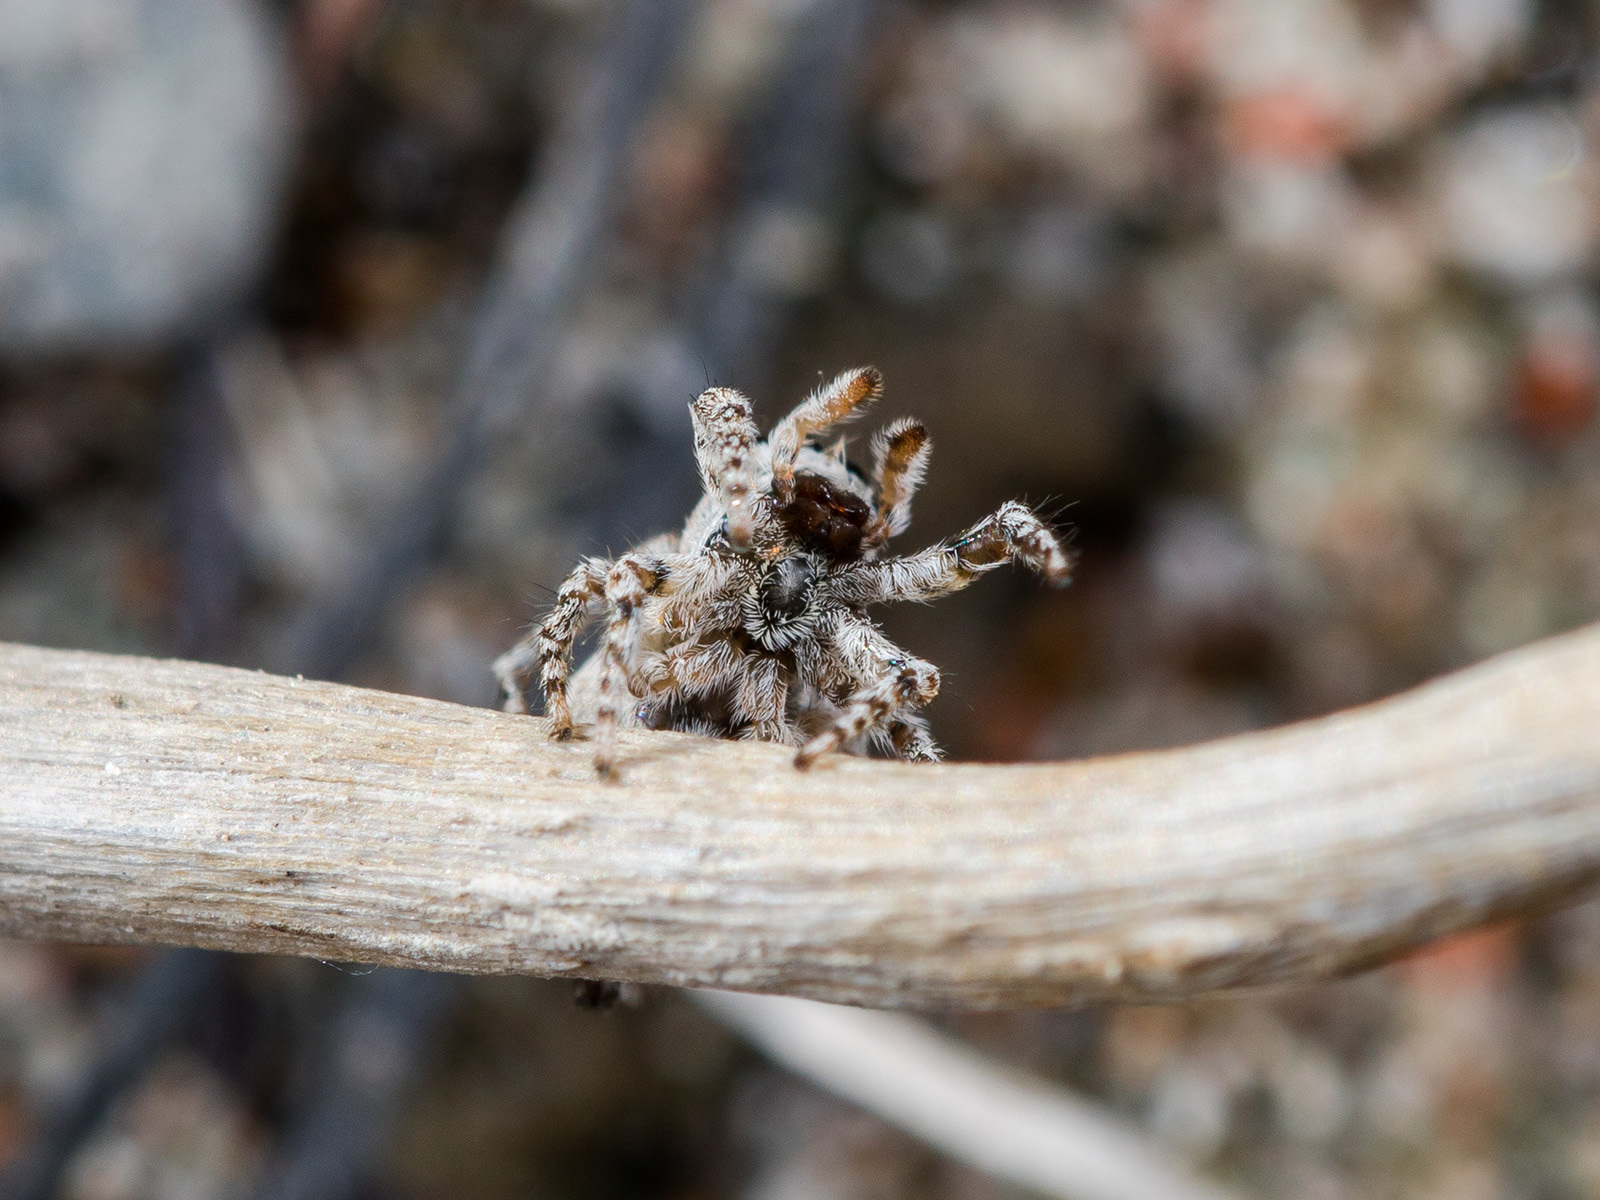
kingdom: Animalia
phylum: Arthropoda
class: Arachnida
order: Araneae
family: Salticidae
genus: Attulus
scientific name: Attulus avocator
